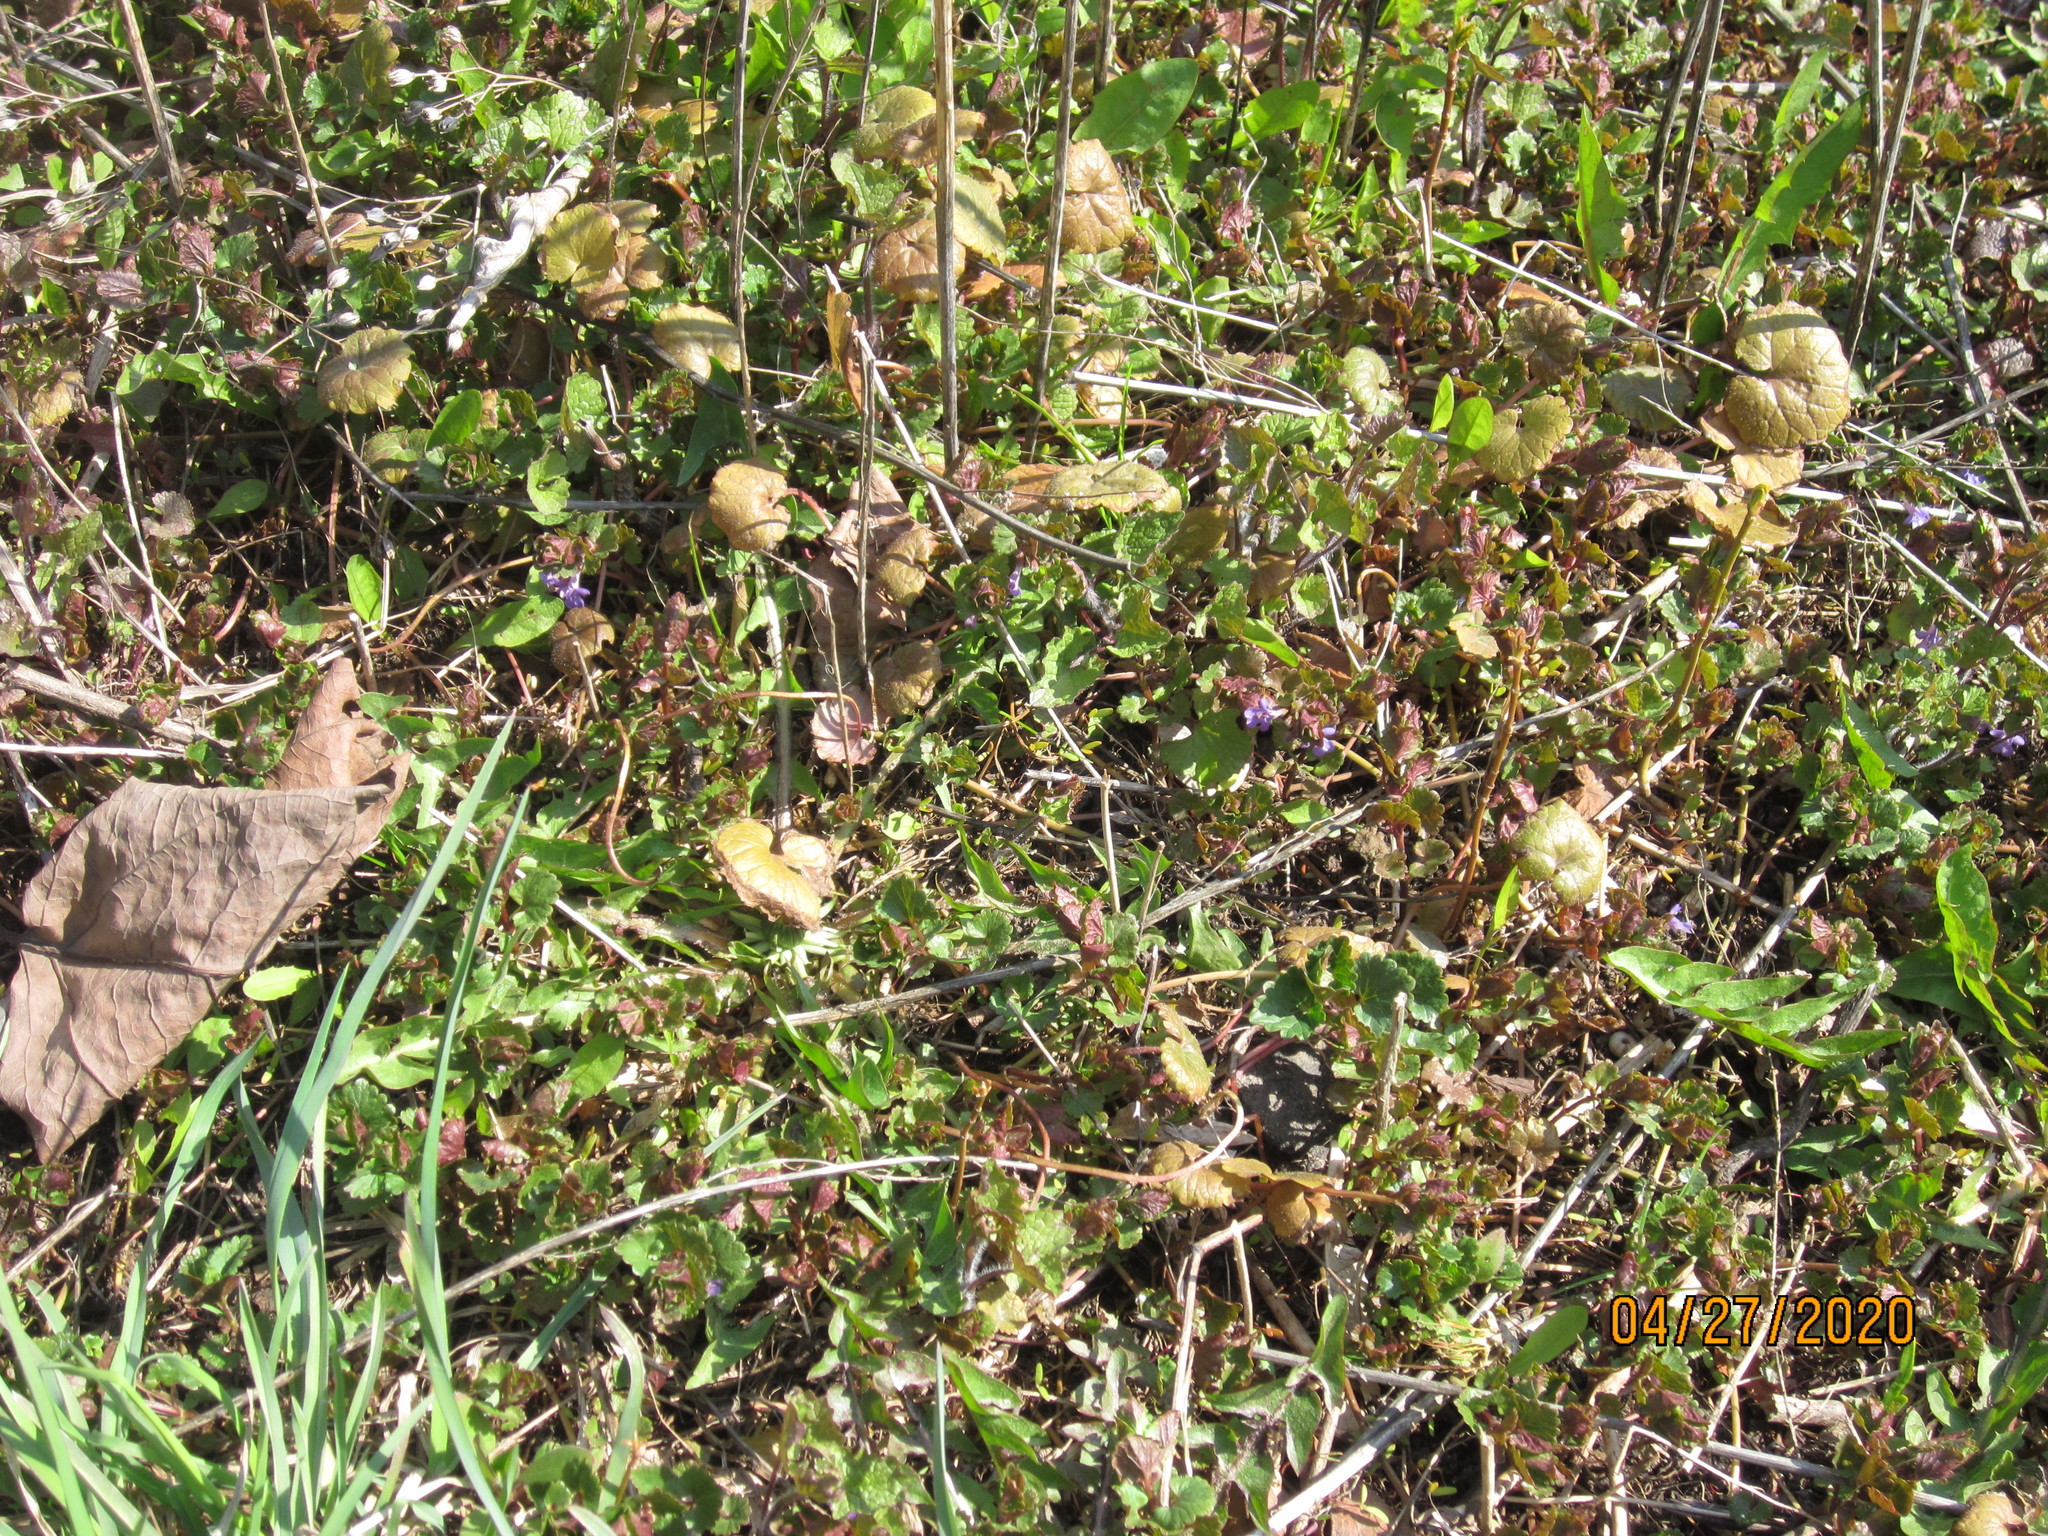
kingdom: Plantae
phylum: Tracheophyta
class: Magnoliopsida
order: Lamiales
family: Lamiaceae
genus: Glechoma
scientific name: Glechoma hederacea
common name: Ground ivy
